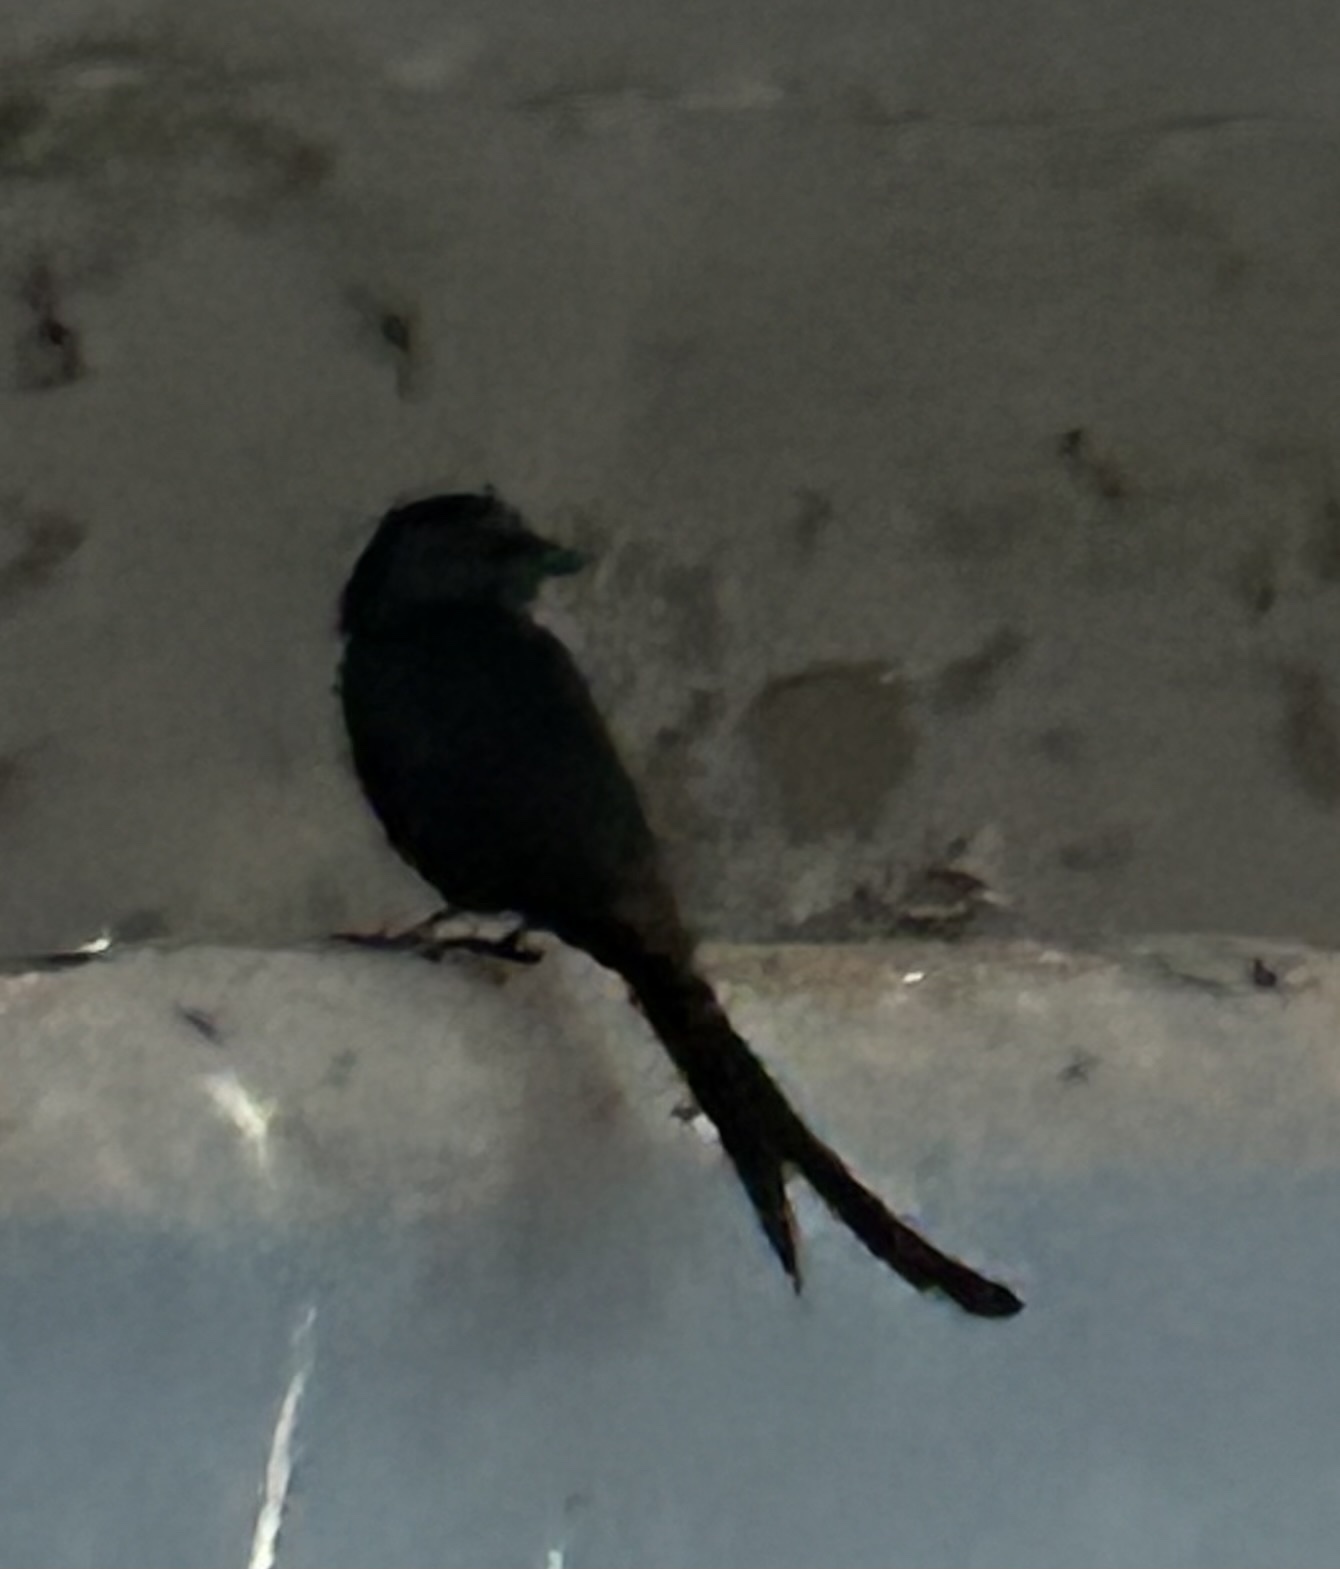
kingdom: Animalia
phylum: Chordata
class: Aves
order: Passeriformes
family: Dicruridae
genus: Dicrurus
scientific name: Dicrurus macrocercus
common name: Black drongo
